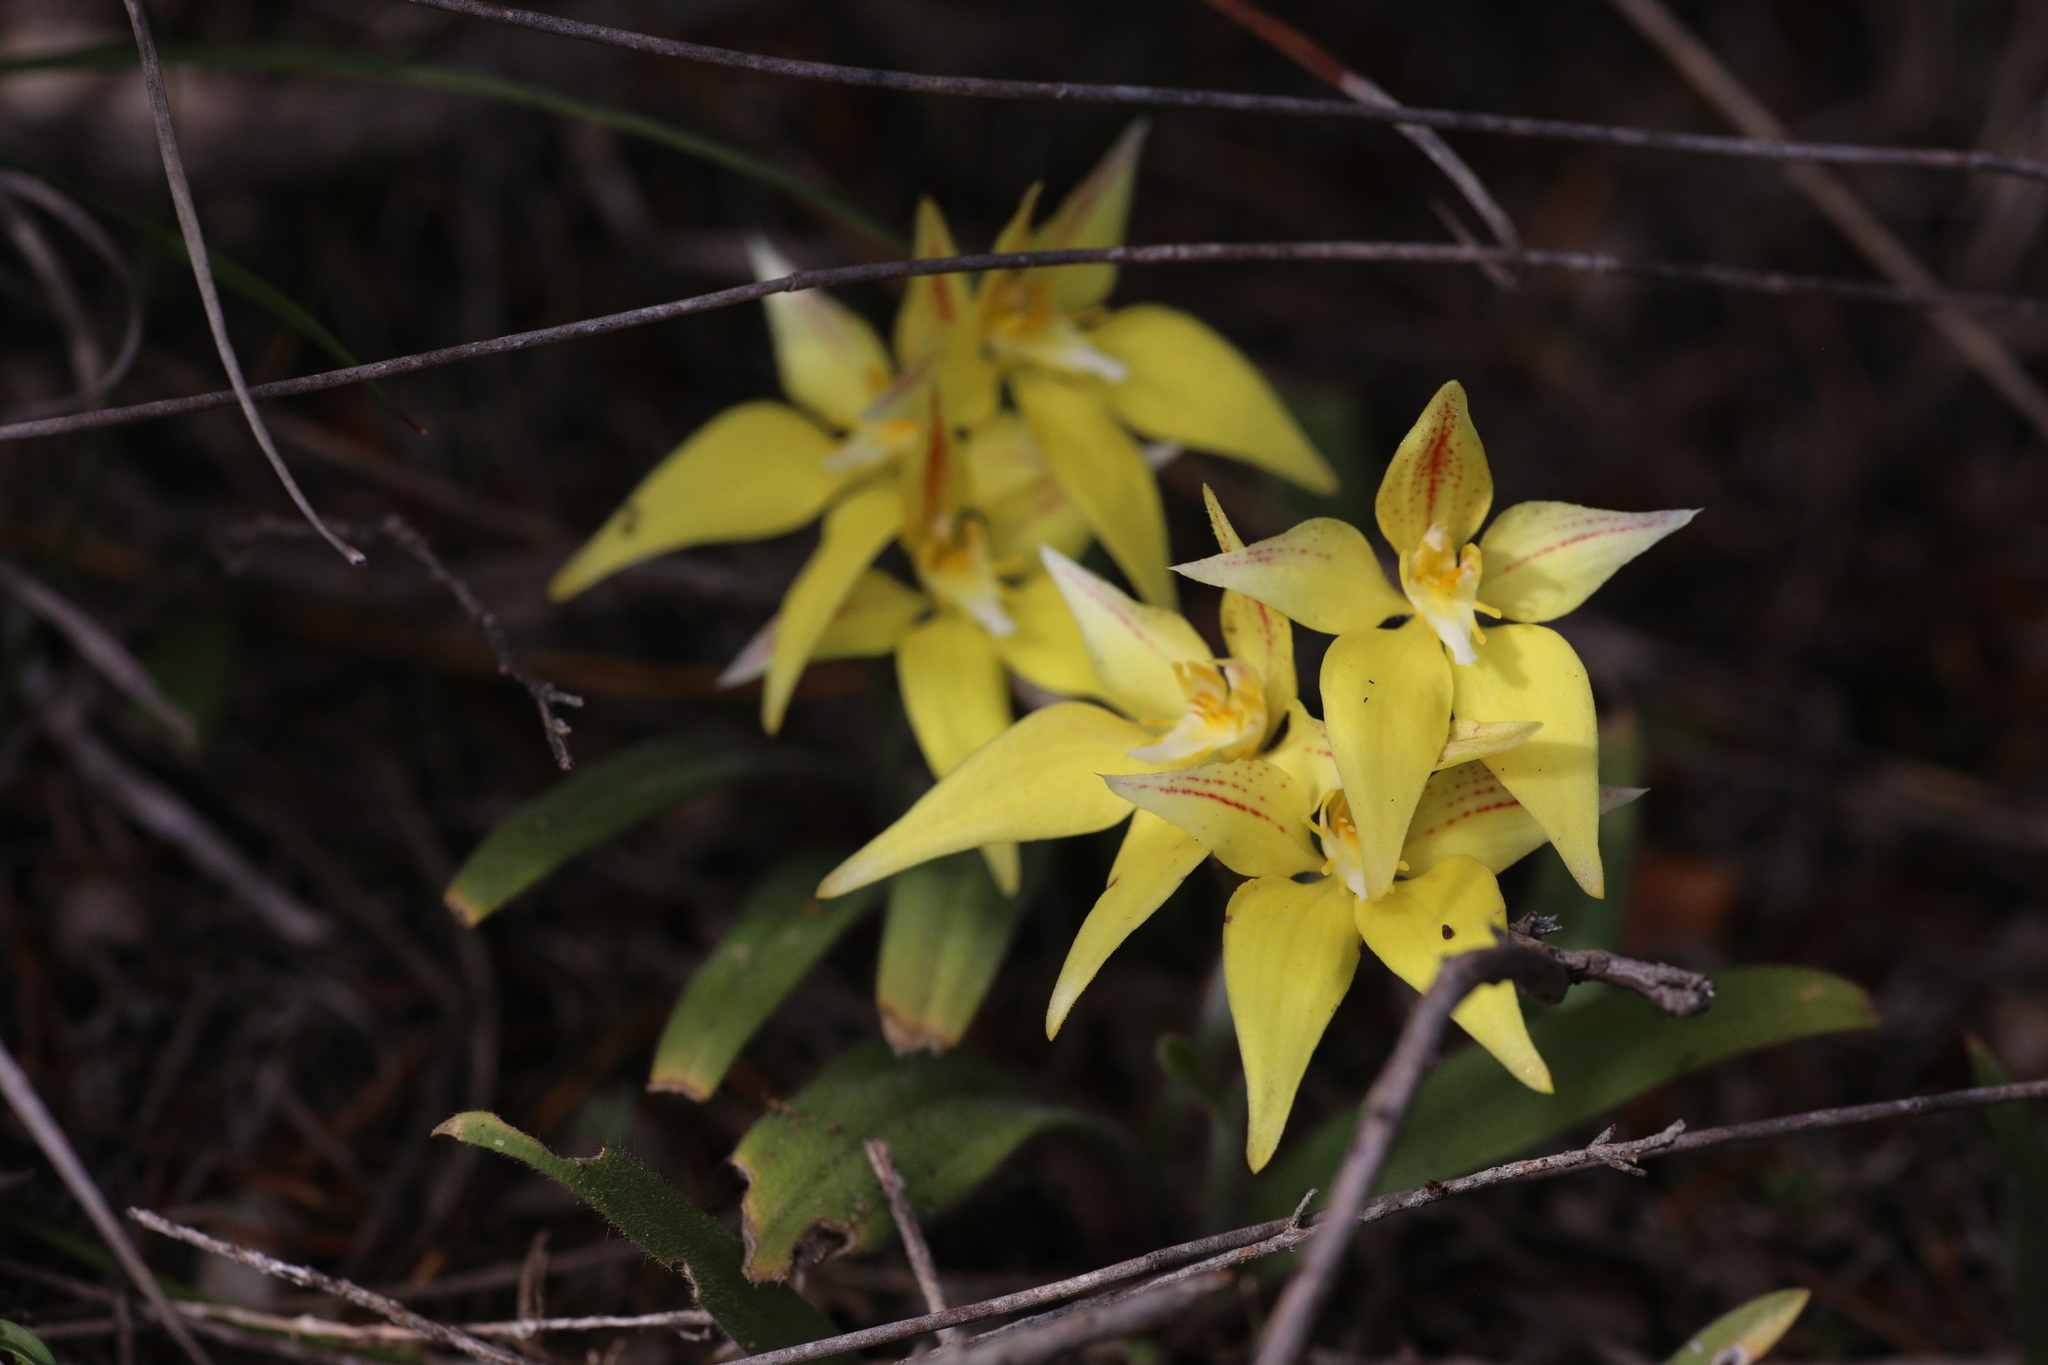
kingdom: Plantae
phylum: Tracheophyta
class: Liliopsida
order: Asparagales
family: Orchidaceae
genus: Caladenia
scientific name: Caladenia flava
